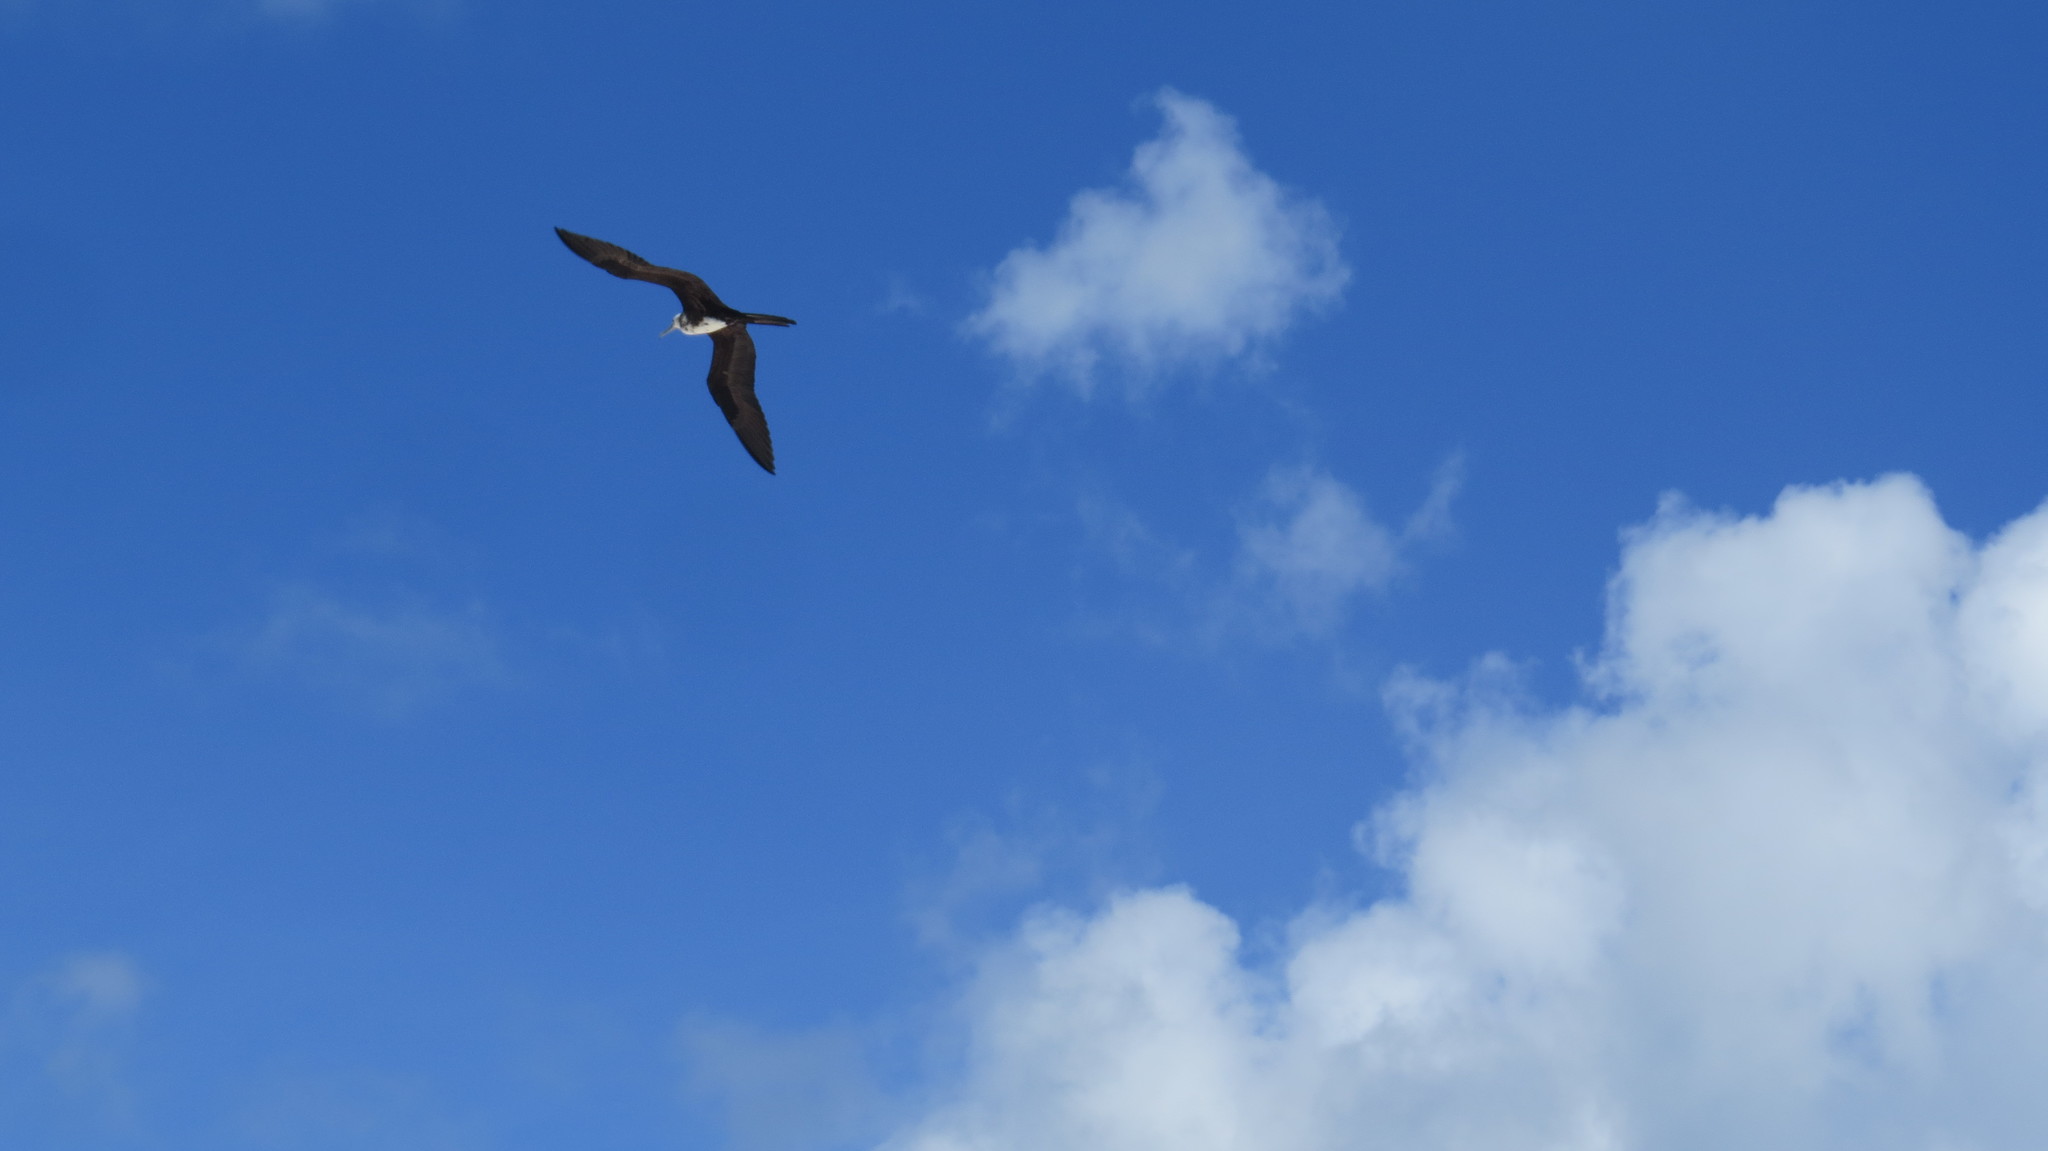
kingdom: Animalia
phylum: Chordata
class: Aves
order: Suliformes
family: Fregatidae
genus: Fregata
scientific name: Fregata magnificens
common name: Magnificent frigatebird
